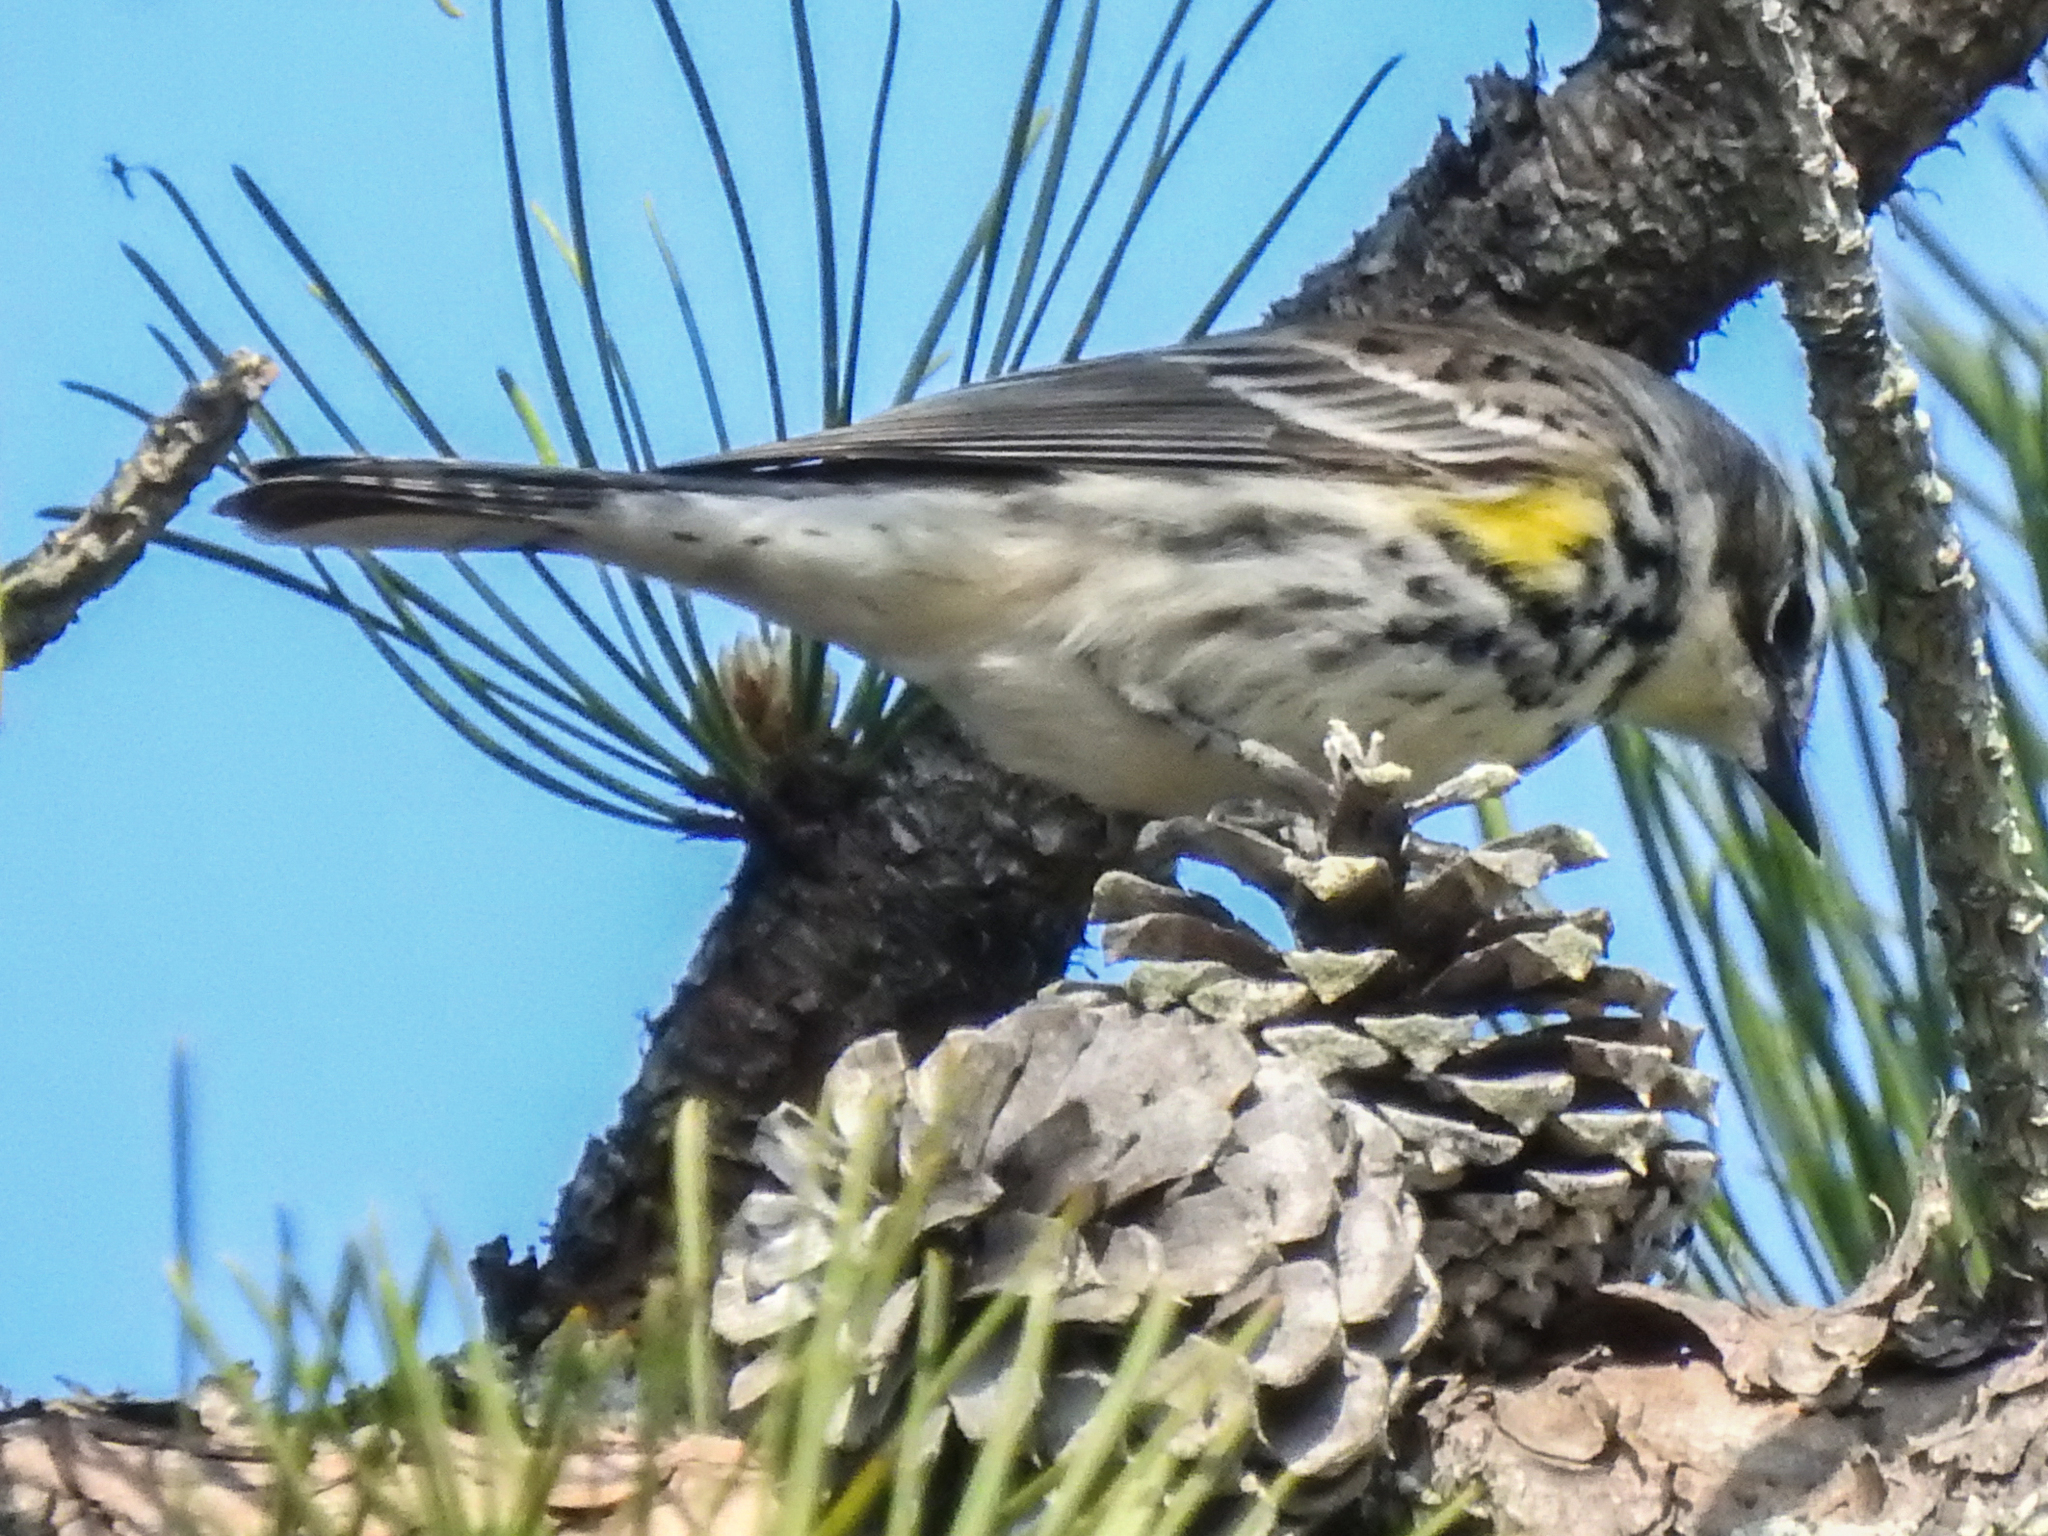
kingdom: Animalia
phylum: Chordata
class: Aves
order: Passeriformes
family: Parulidae
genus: Setophaga
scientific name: Setophaga coronata
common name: Myrtle warbler
